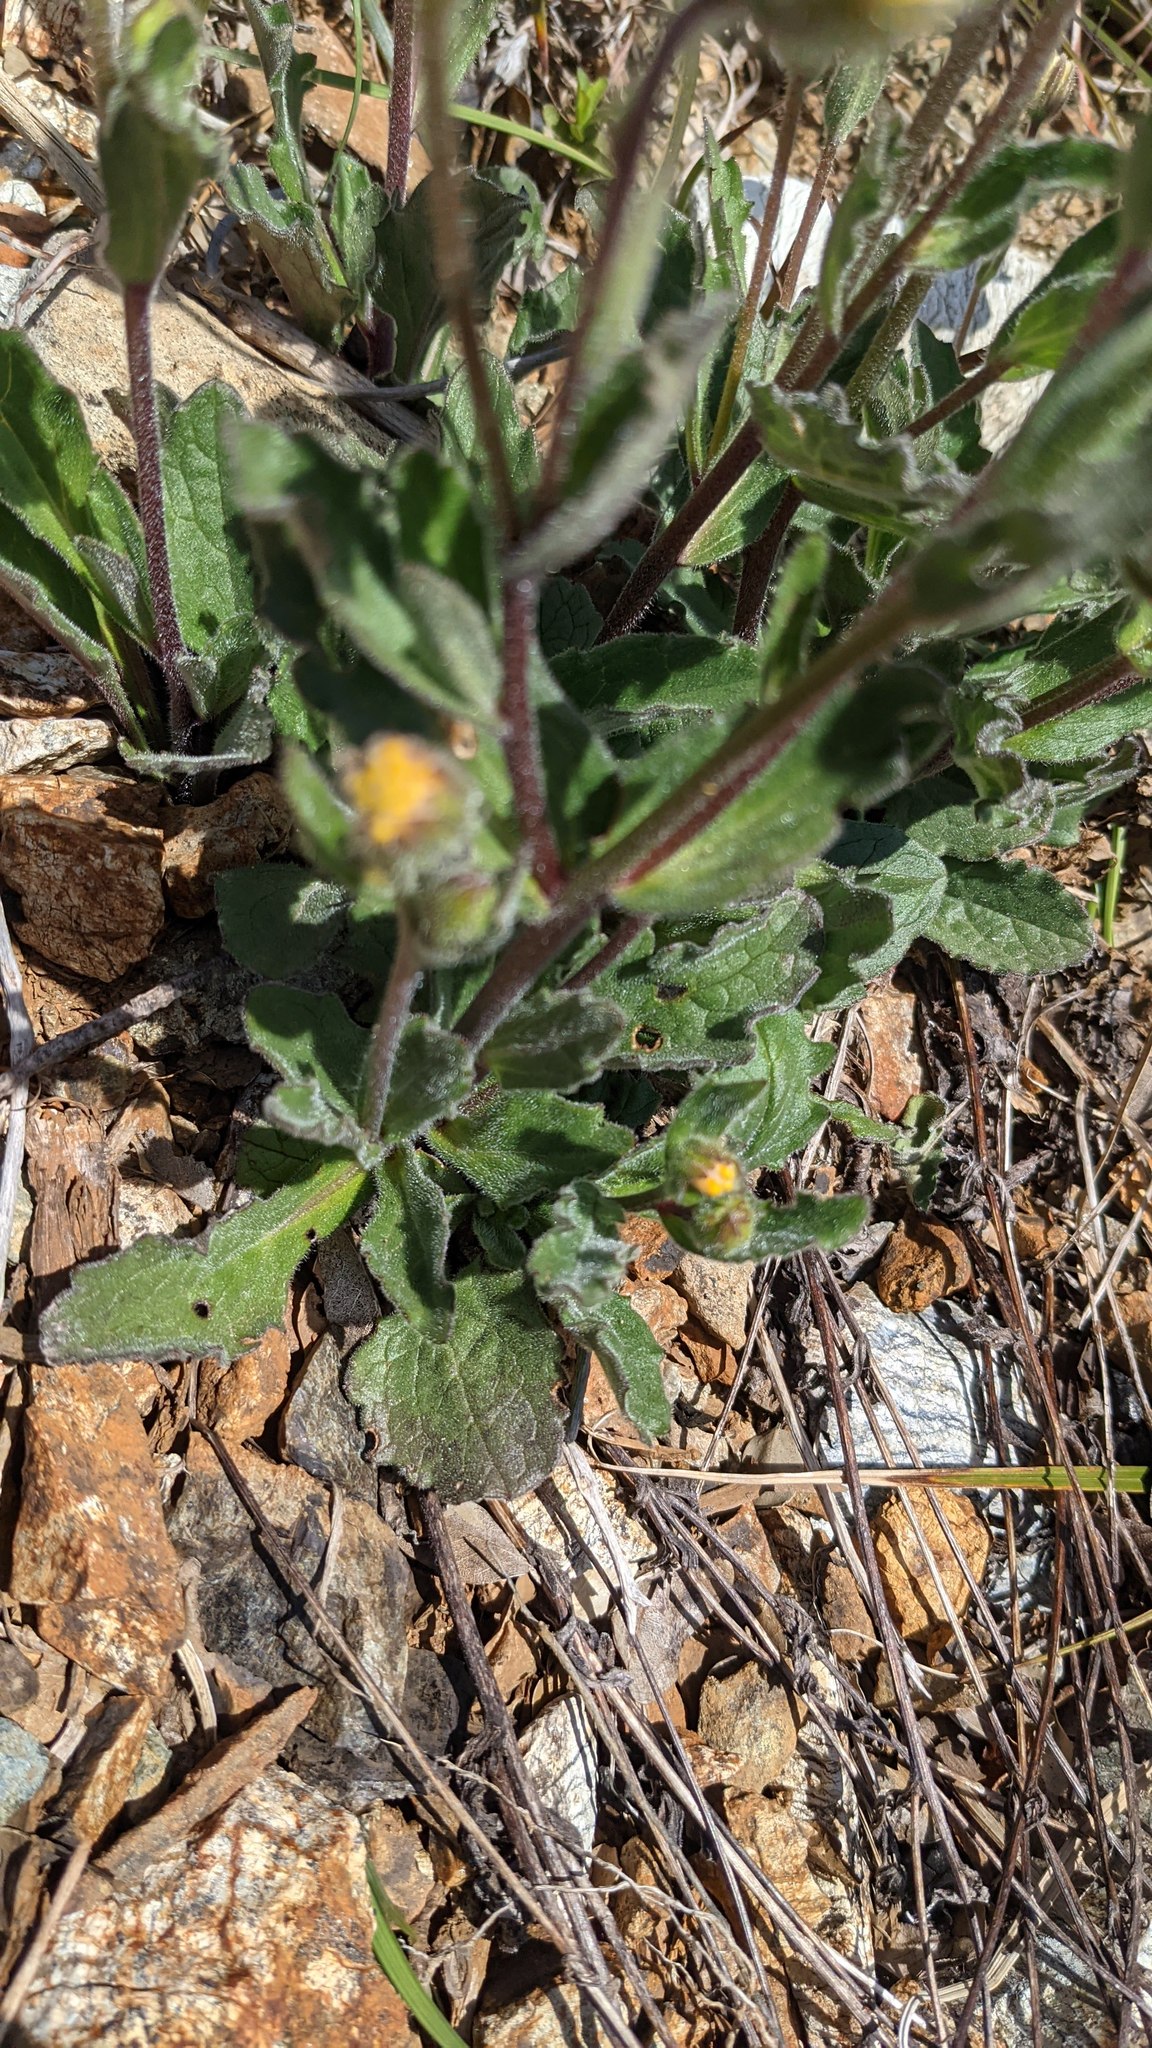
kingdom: Plantae
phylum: Tracheophyta
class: Magnoliopsida
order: Asterales
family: Asteraceae
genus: Arnica
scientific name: Arnica spathulata
